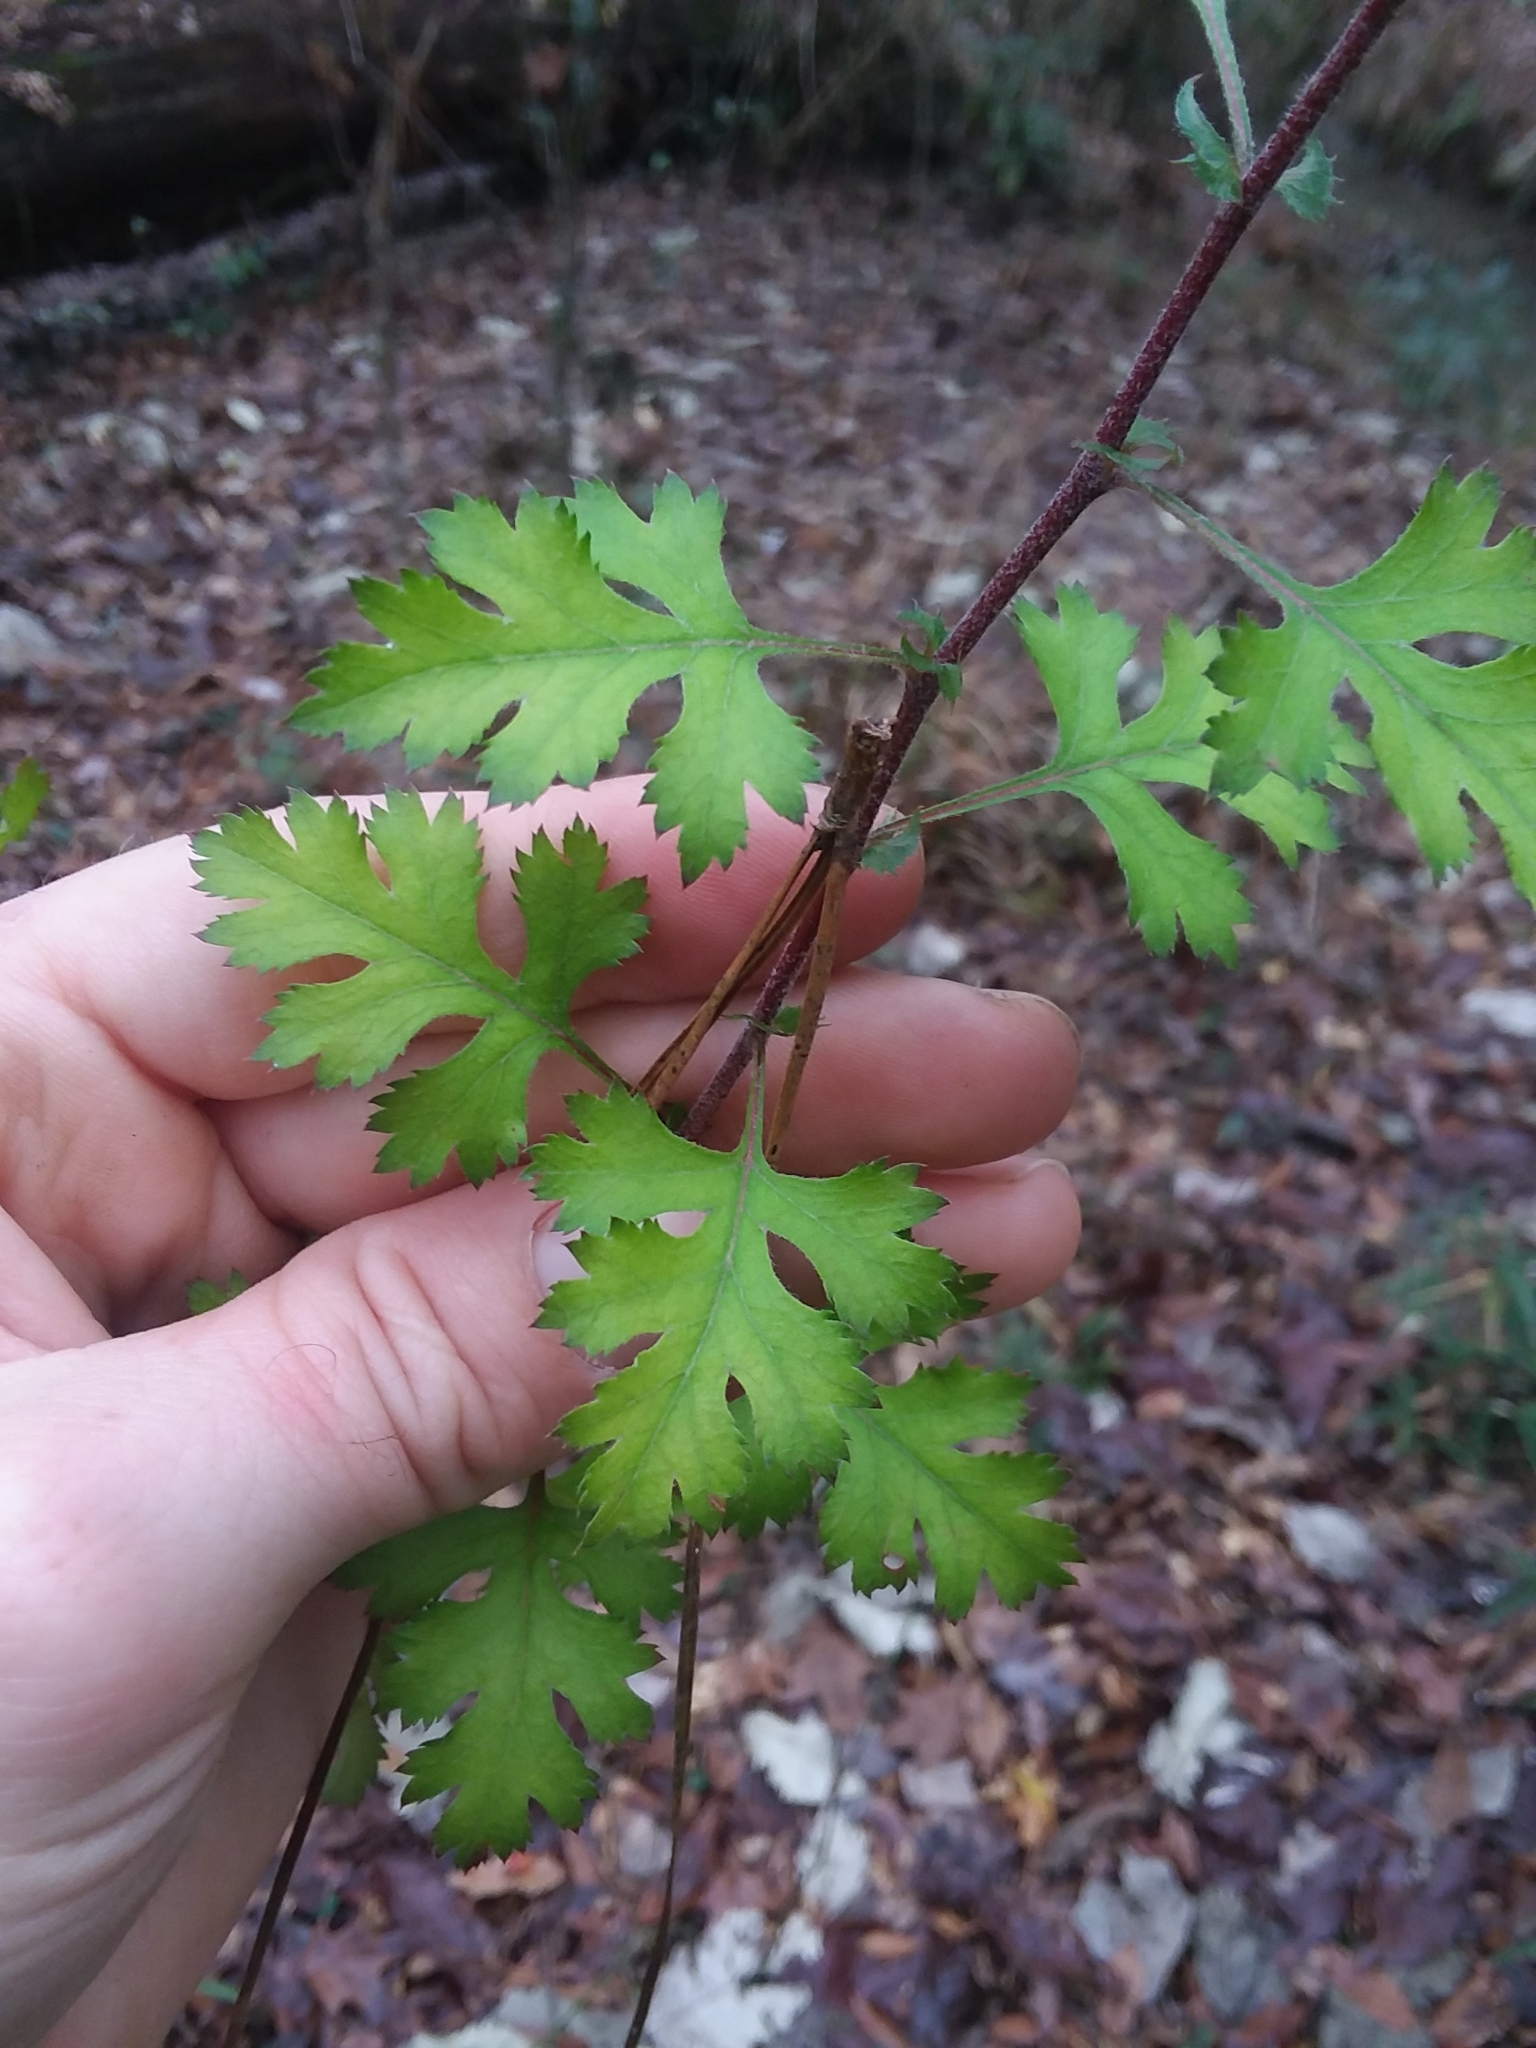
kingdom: Plantae
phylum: Tracheophyta
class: Magnoliopsida
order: Rosales
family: Rosaceae
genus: Crataegus
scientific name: Crataegus marshallii
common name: Parsley-hawthorn
